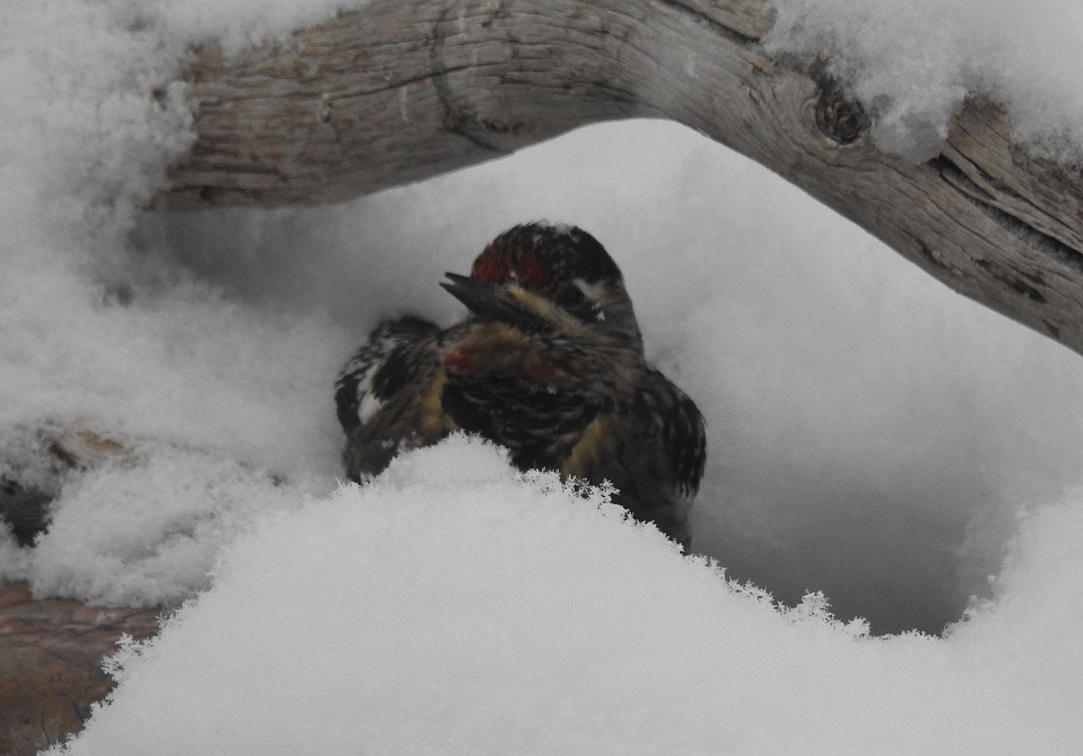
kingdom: Animalia
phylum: Chordata
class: Aves
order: Piciformes
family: Picidae
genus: Sphyrapicus
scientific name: Sphyrapicus varius
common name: Yellow-bellied sapsucker
